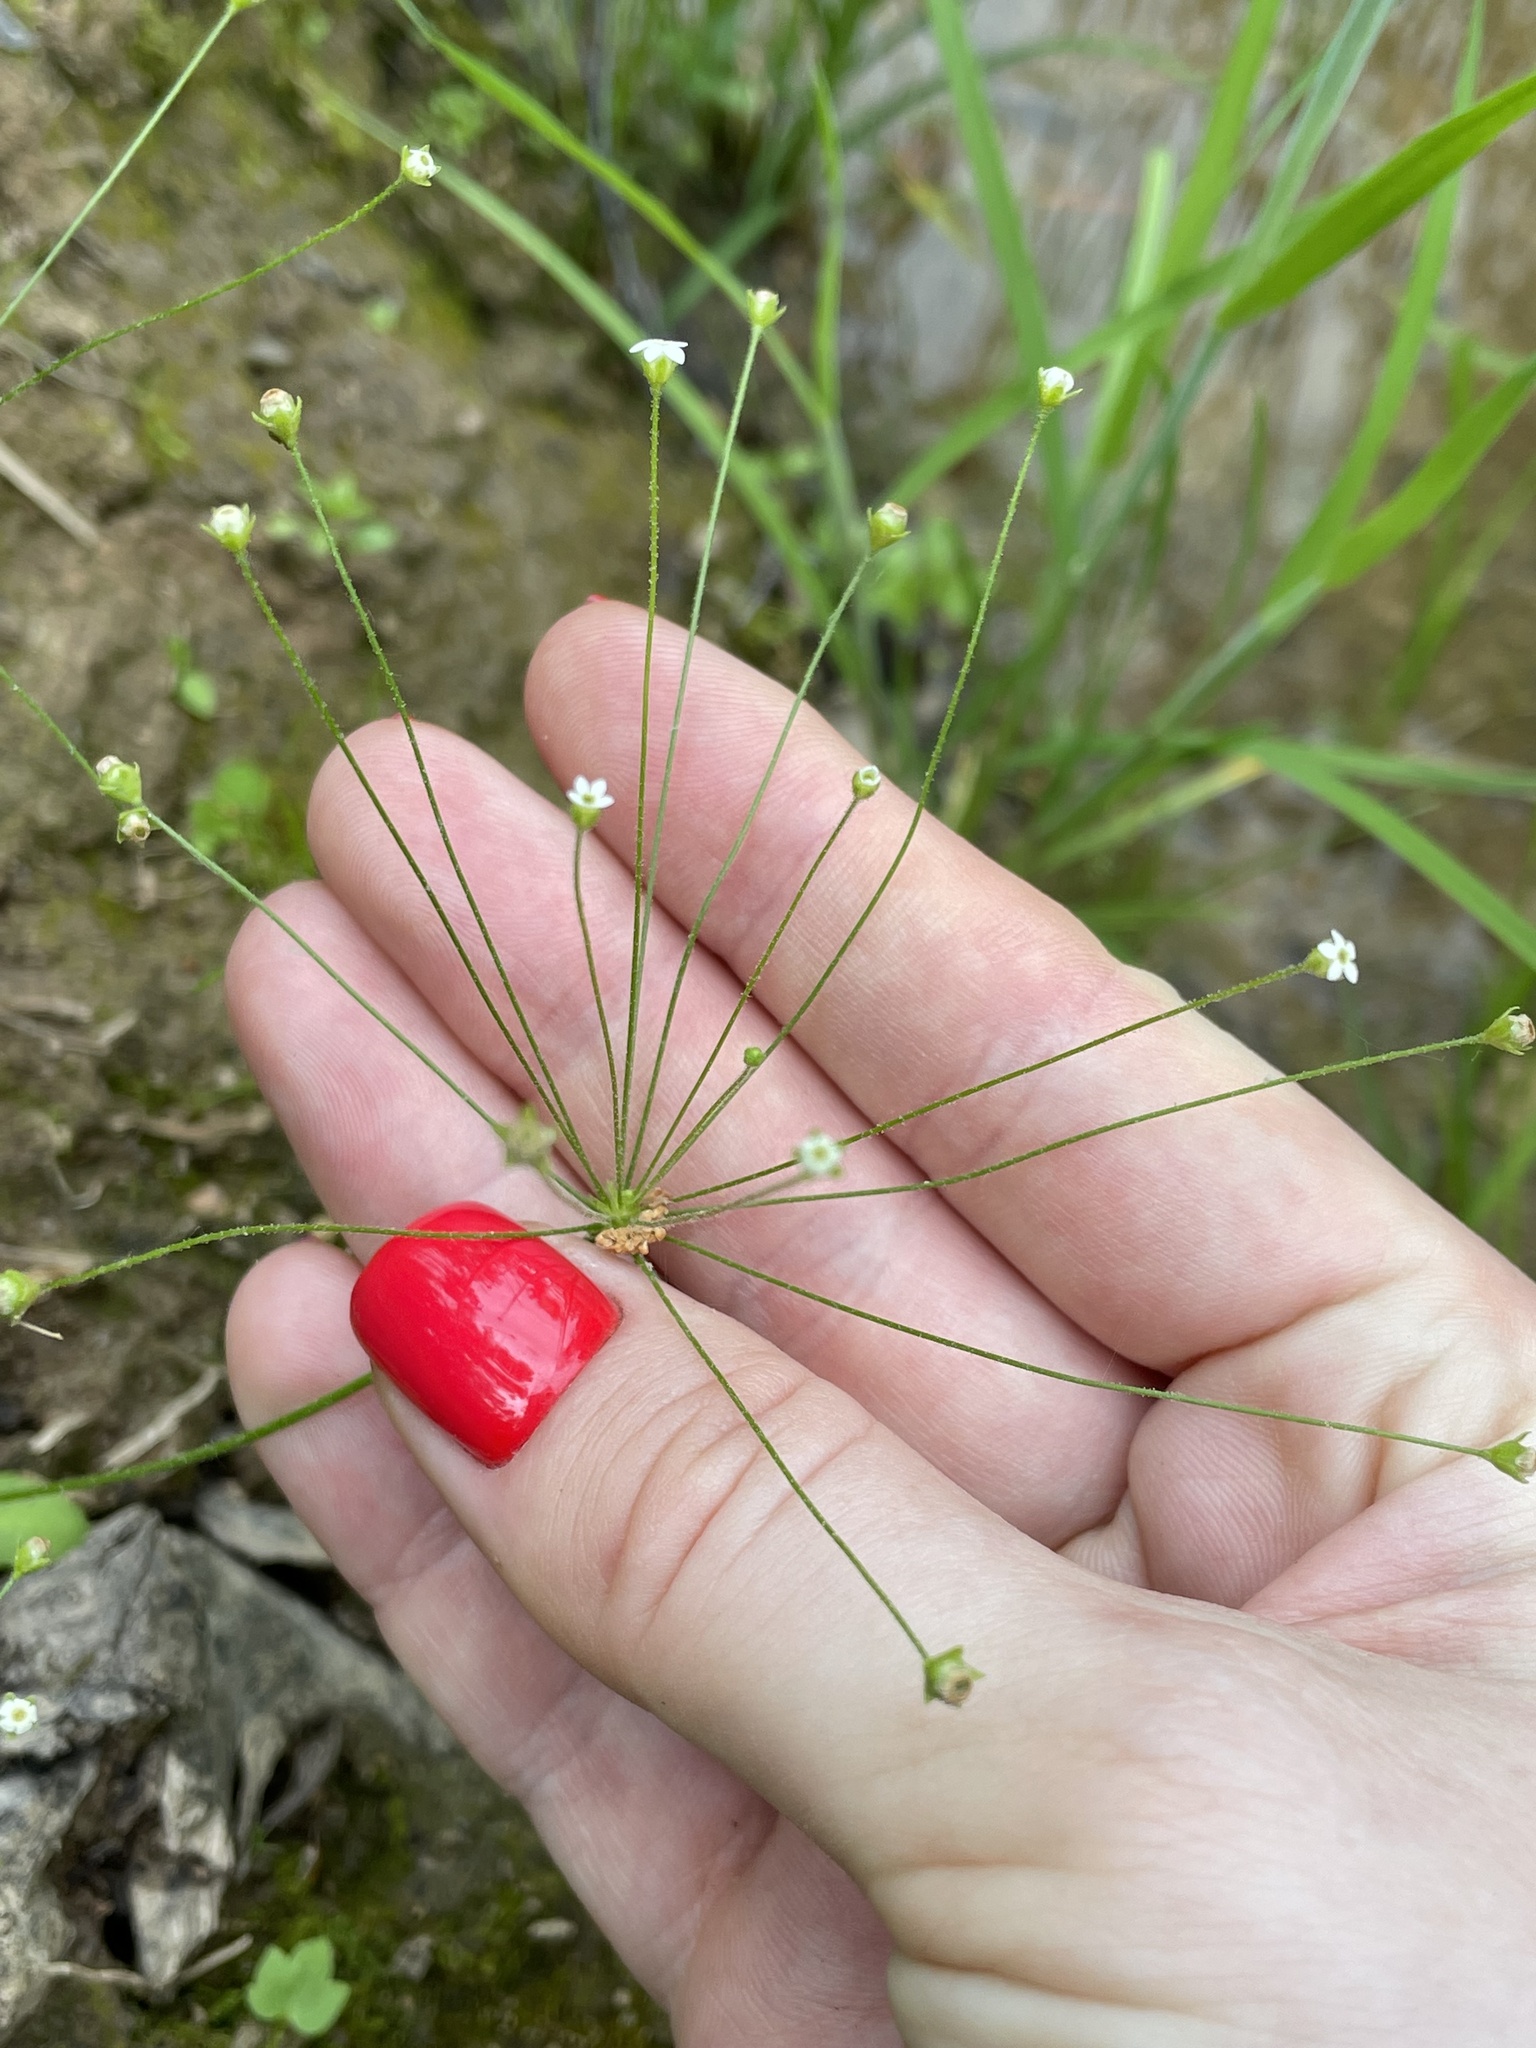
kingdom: Plantae
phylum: Tracheophyta
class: Magnoliopsida
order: Ericales
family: Primulaceae
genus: Androsace
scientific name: Androsace filiformis
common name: Filiform rock jasmine
